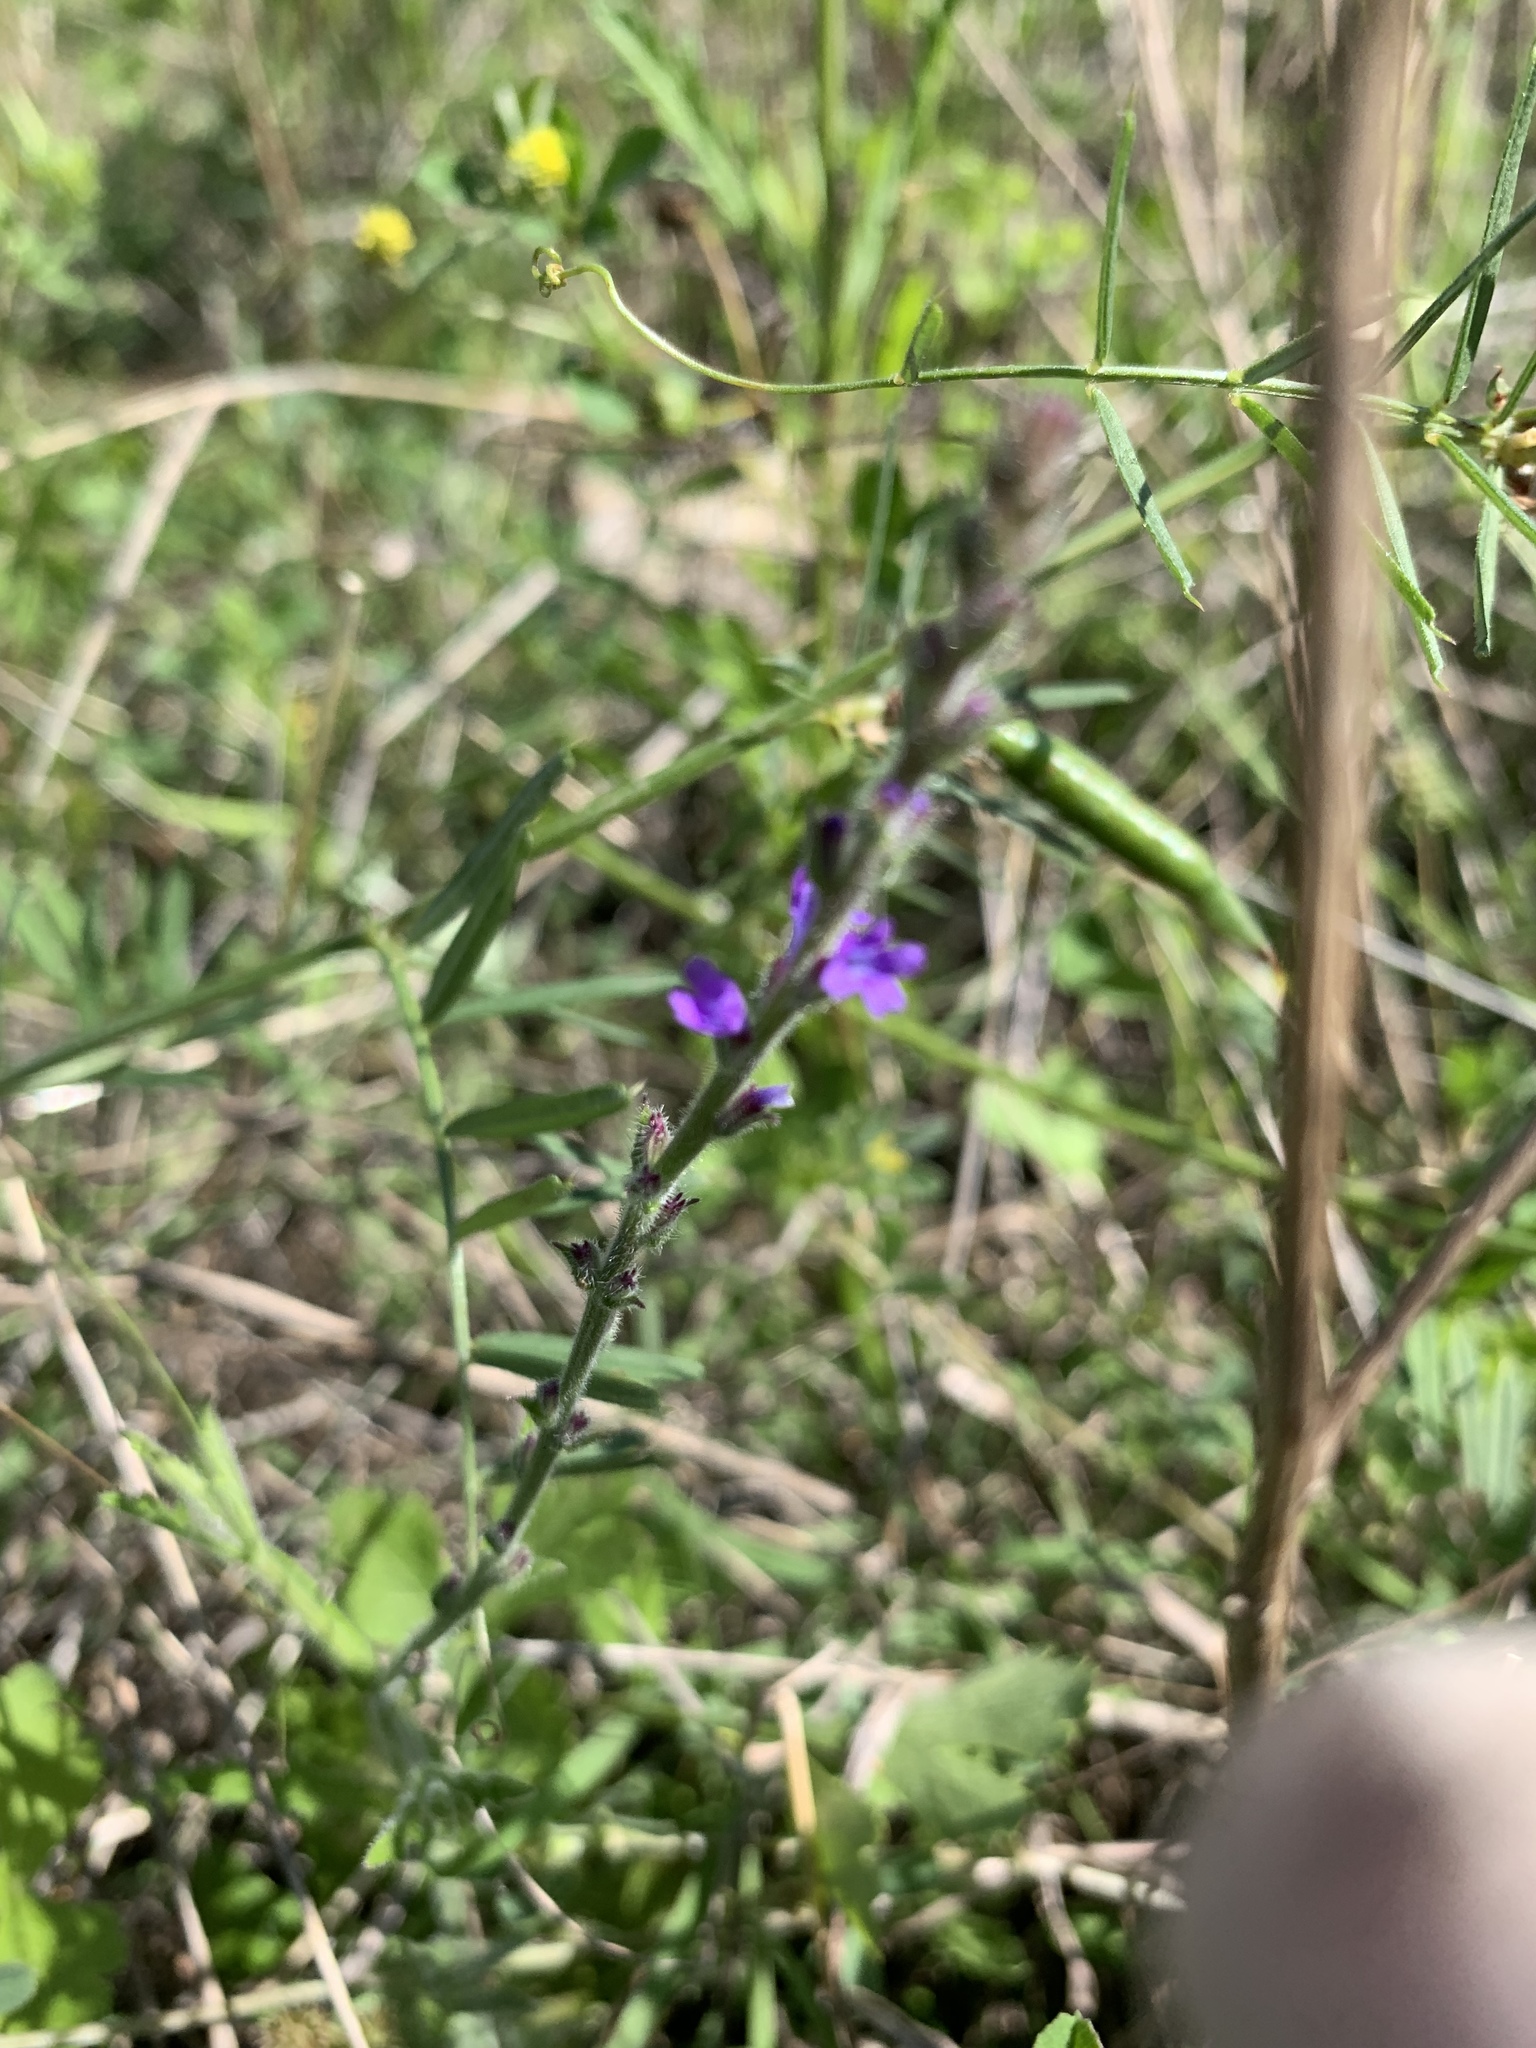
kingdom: Plantae
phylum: Tracheophyta
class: Magnoliopsida
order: Lamiales
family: Verbenaceae
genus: Verbena
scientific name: Verbena canescens
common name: Gray vervain
